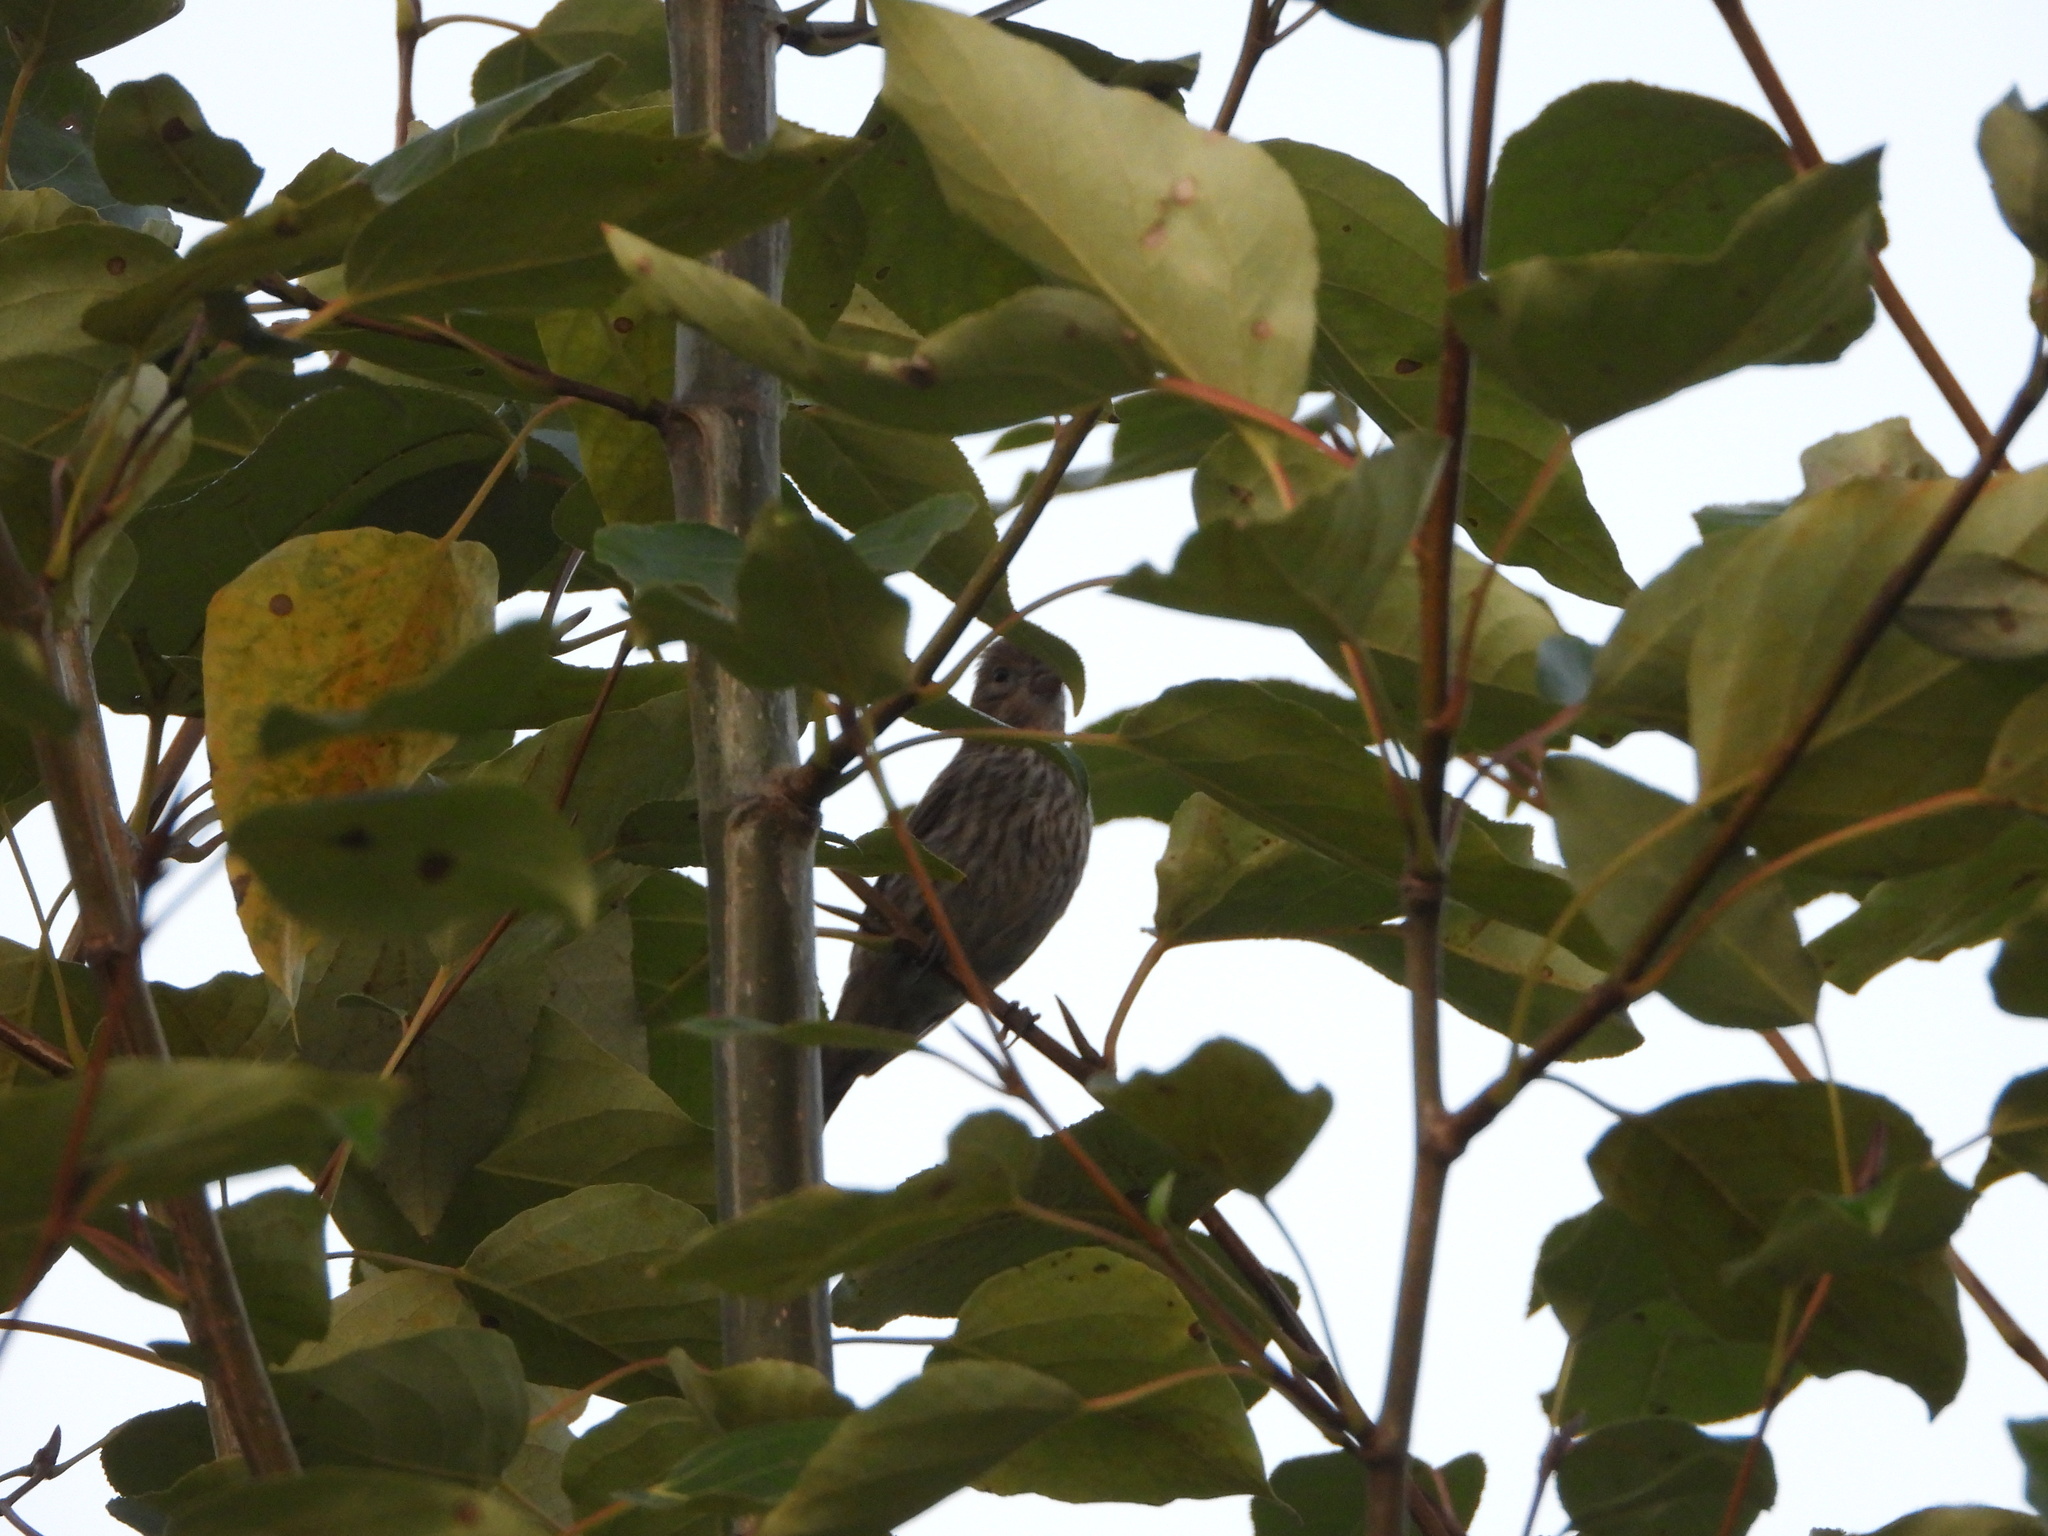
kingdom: Animalia
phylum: Chordata
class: Aves
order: Passeriformes
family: Fringillidae
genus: Haemorhous
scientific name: Haemorhous mexicanus
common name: House finch
